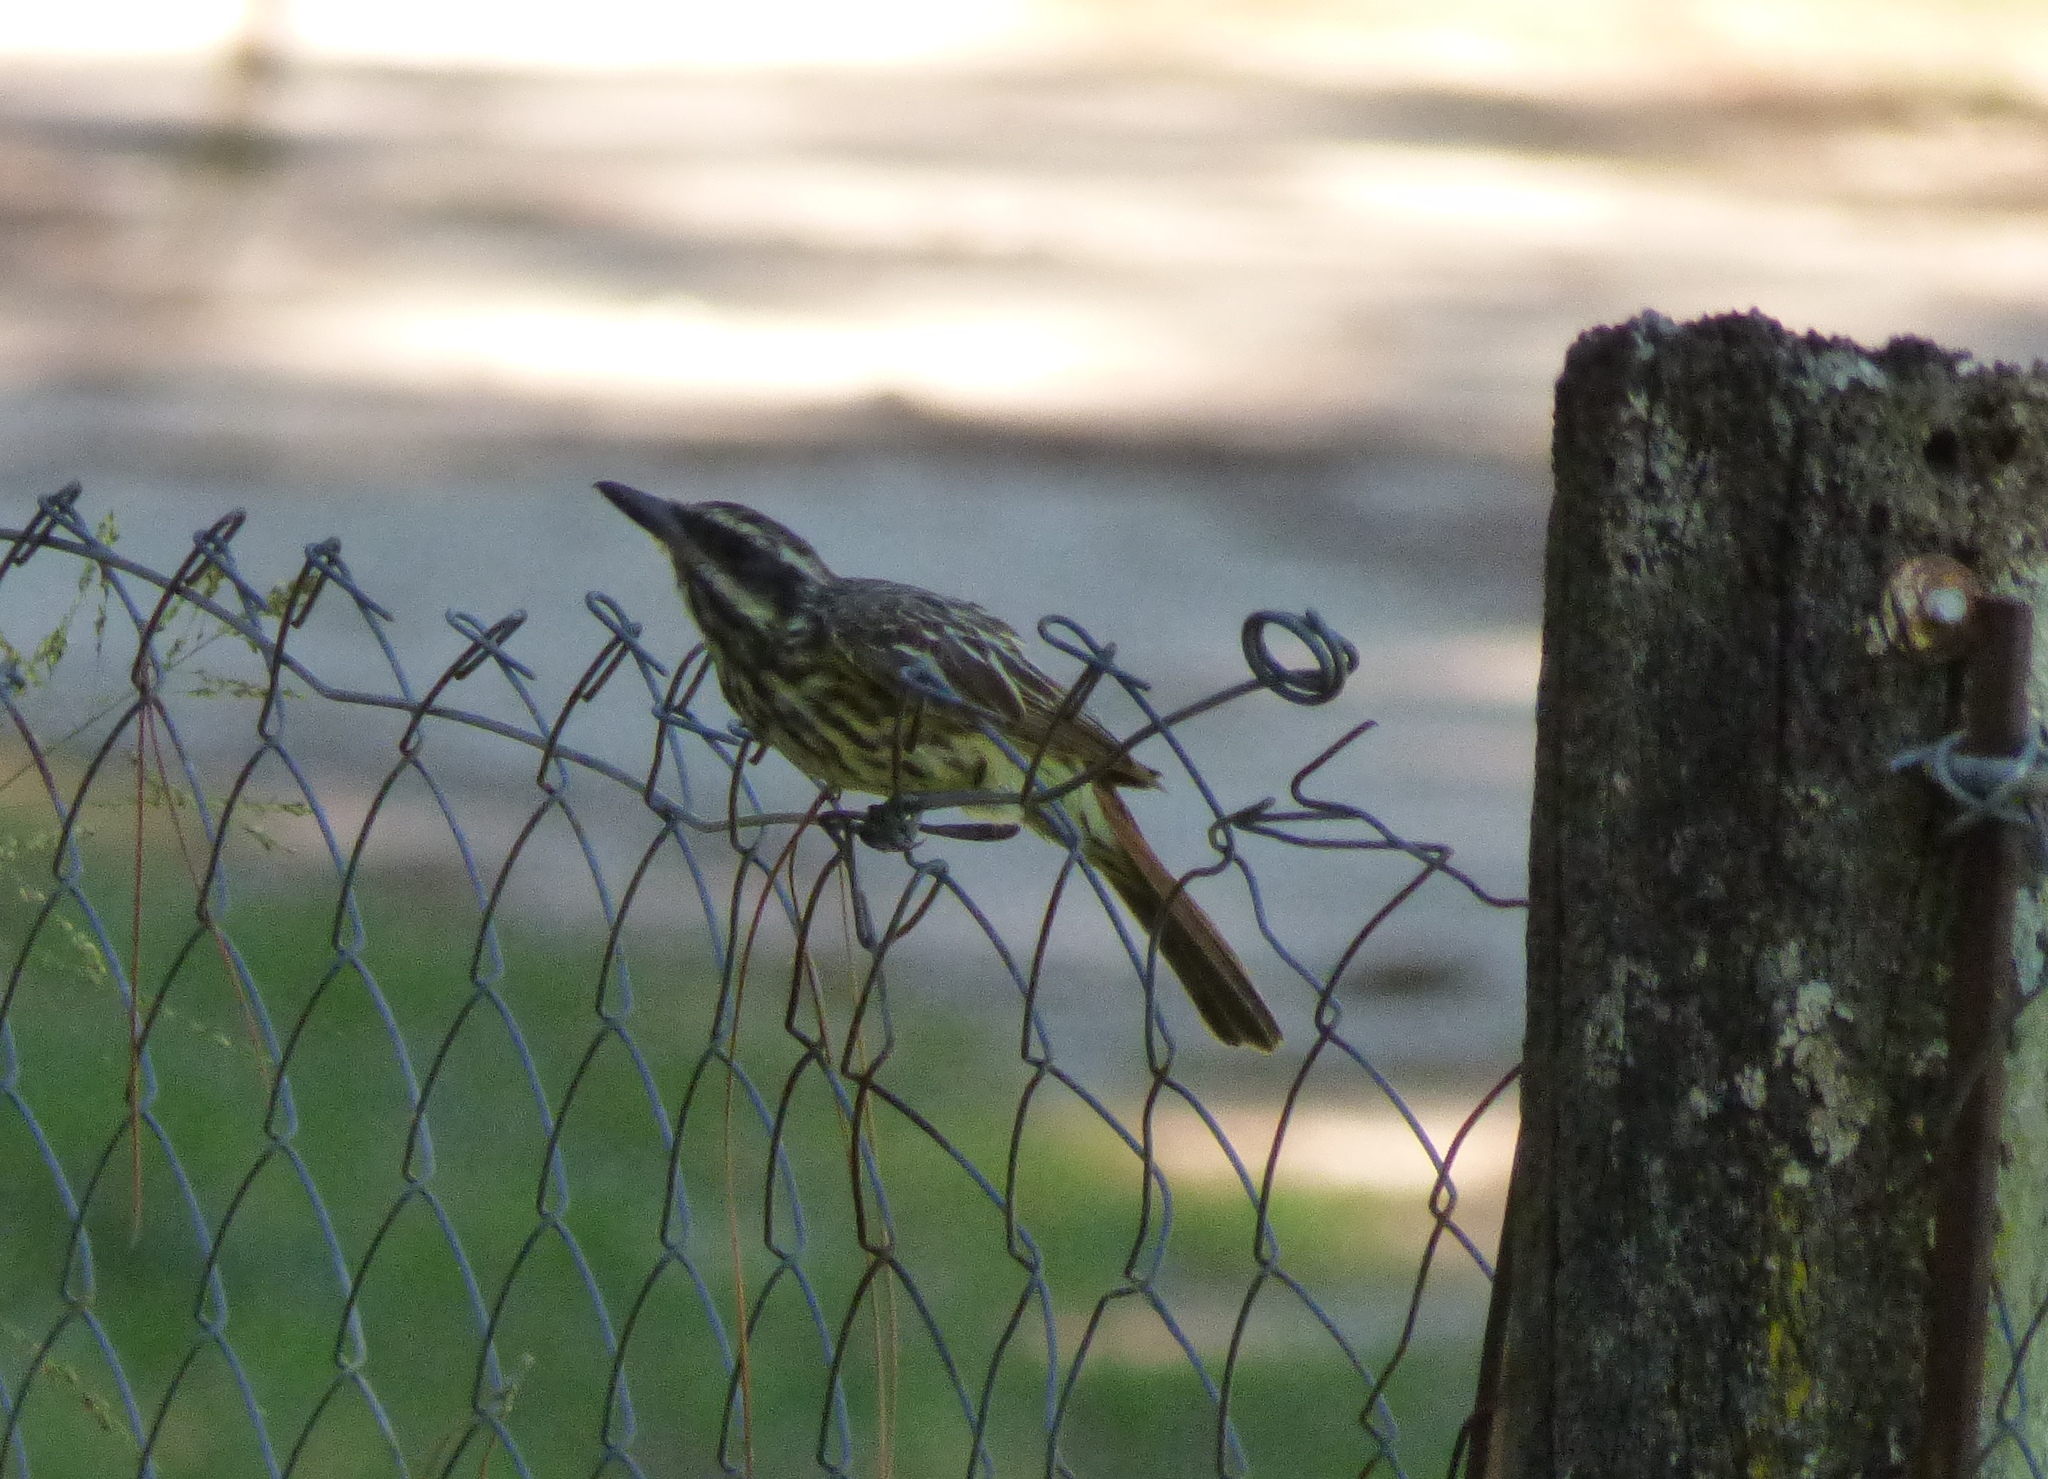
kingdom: Animalia
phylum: Chordata
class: Aves
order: Passeriformes
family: Tyrannidae
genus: Myiodynastes
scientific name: Myiodynastes maculatus
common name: Streaked flycatcher
